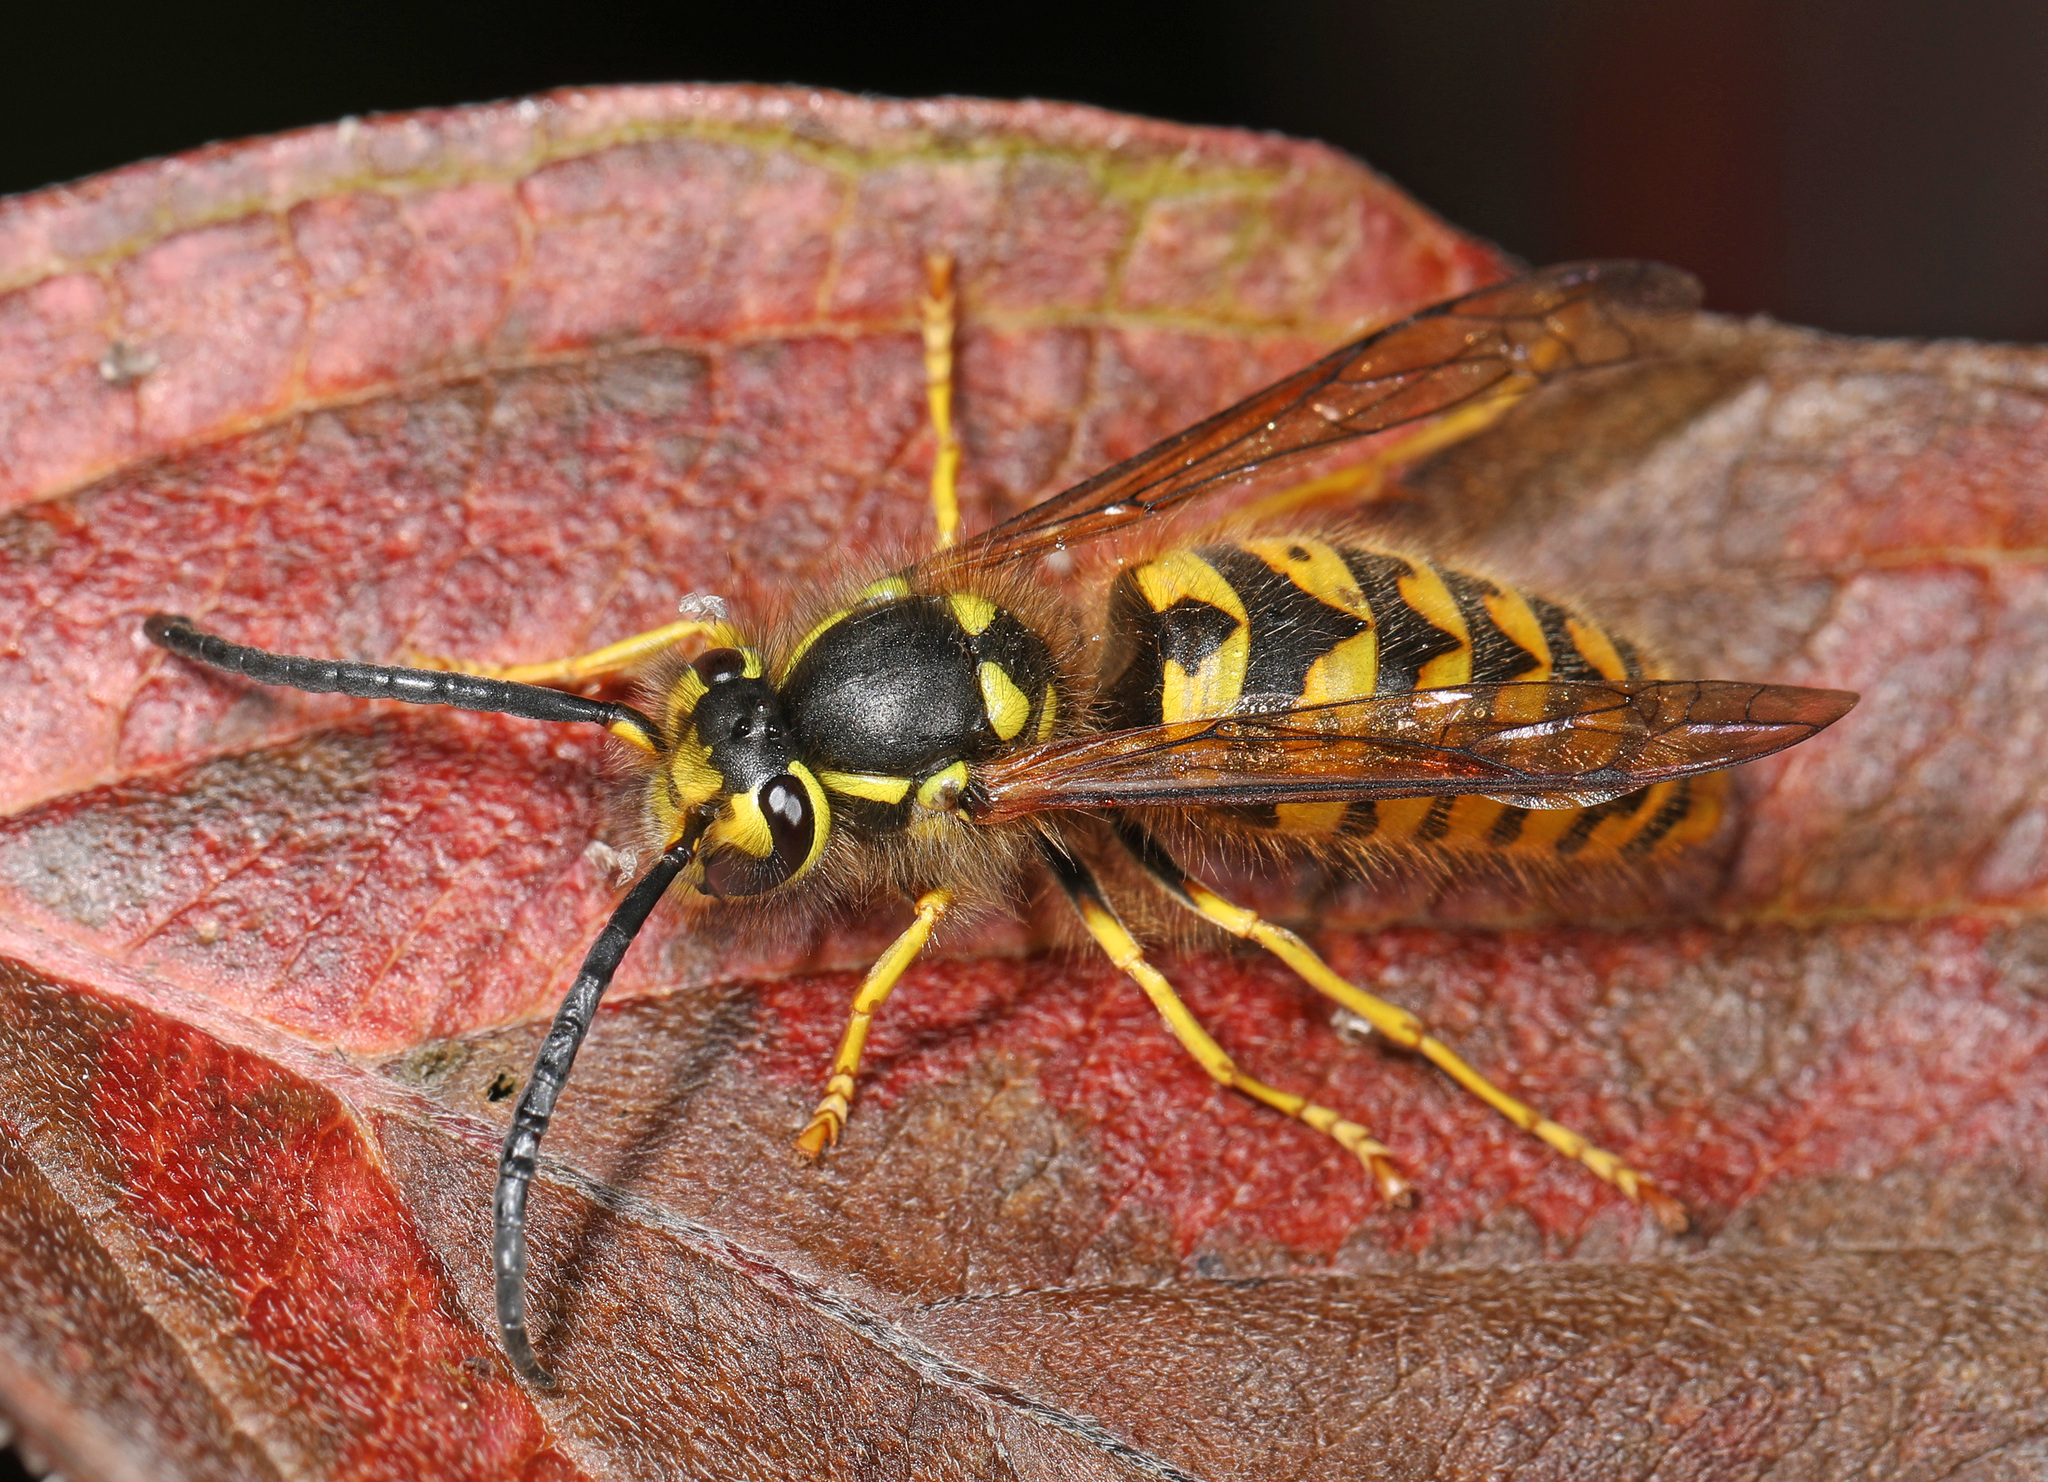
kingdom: Animalia
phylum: Arthropoda
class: Insecta
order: Hymenoptera
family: Vespidae
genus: Vespula
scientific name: Vespula pensylvanica
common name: Western yellowjacket
